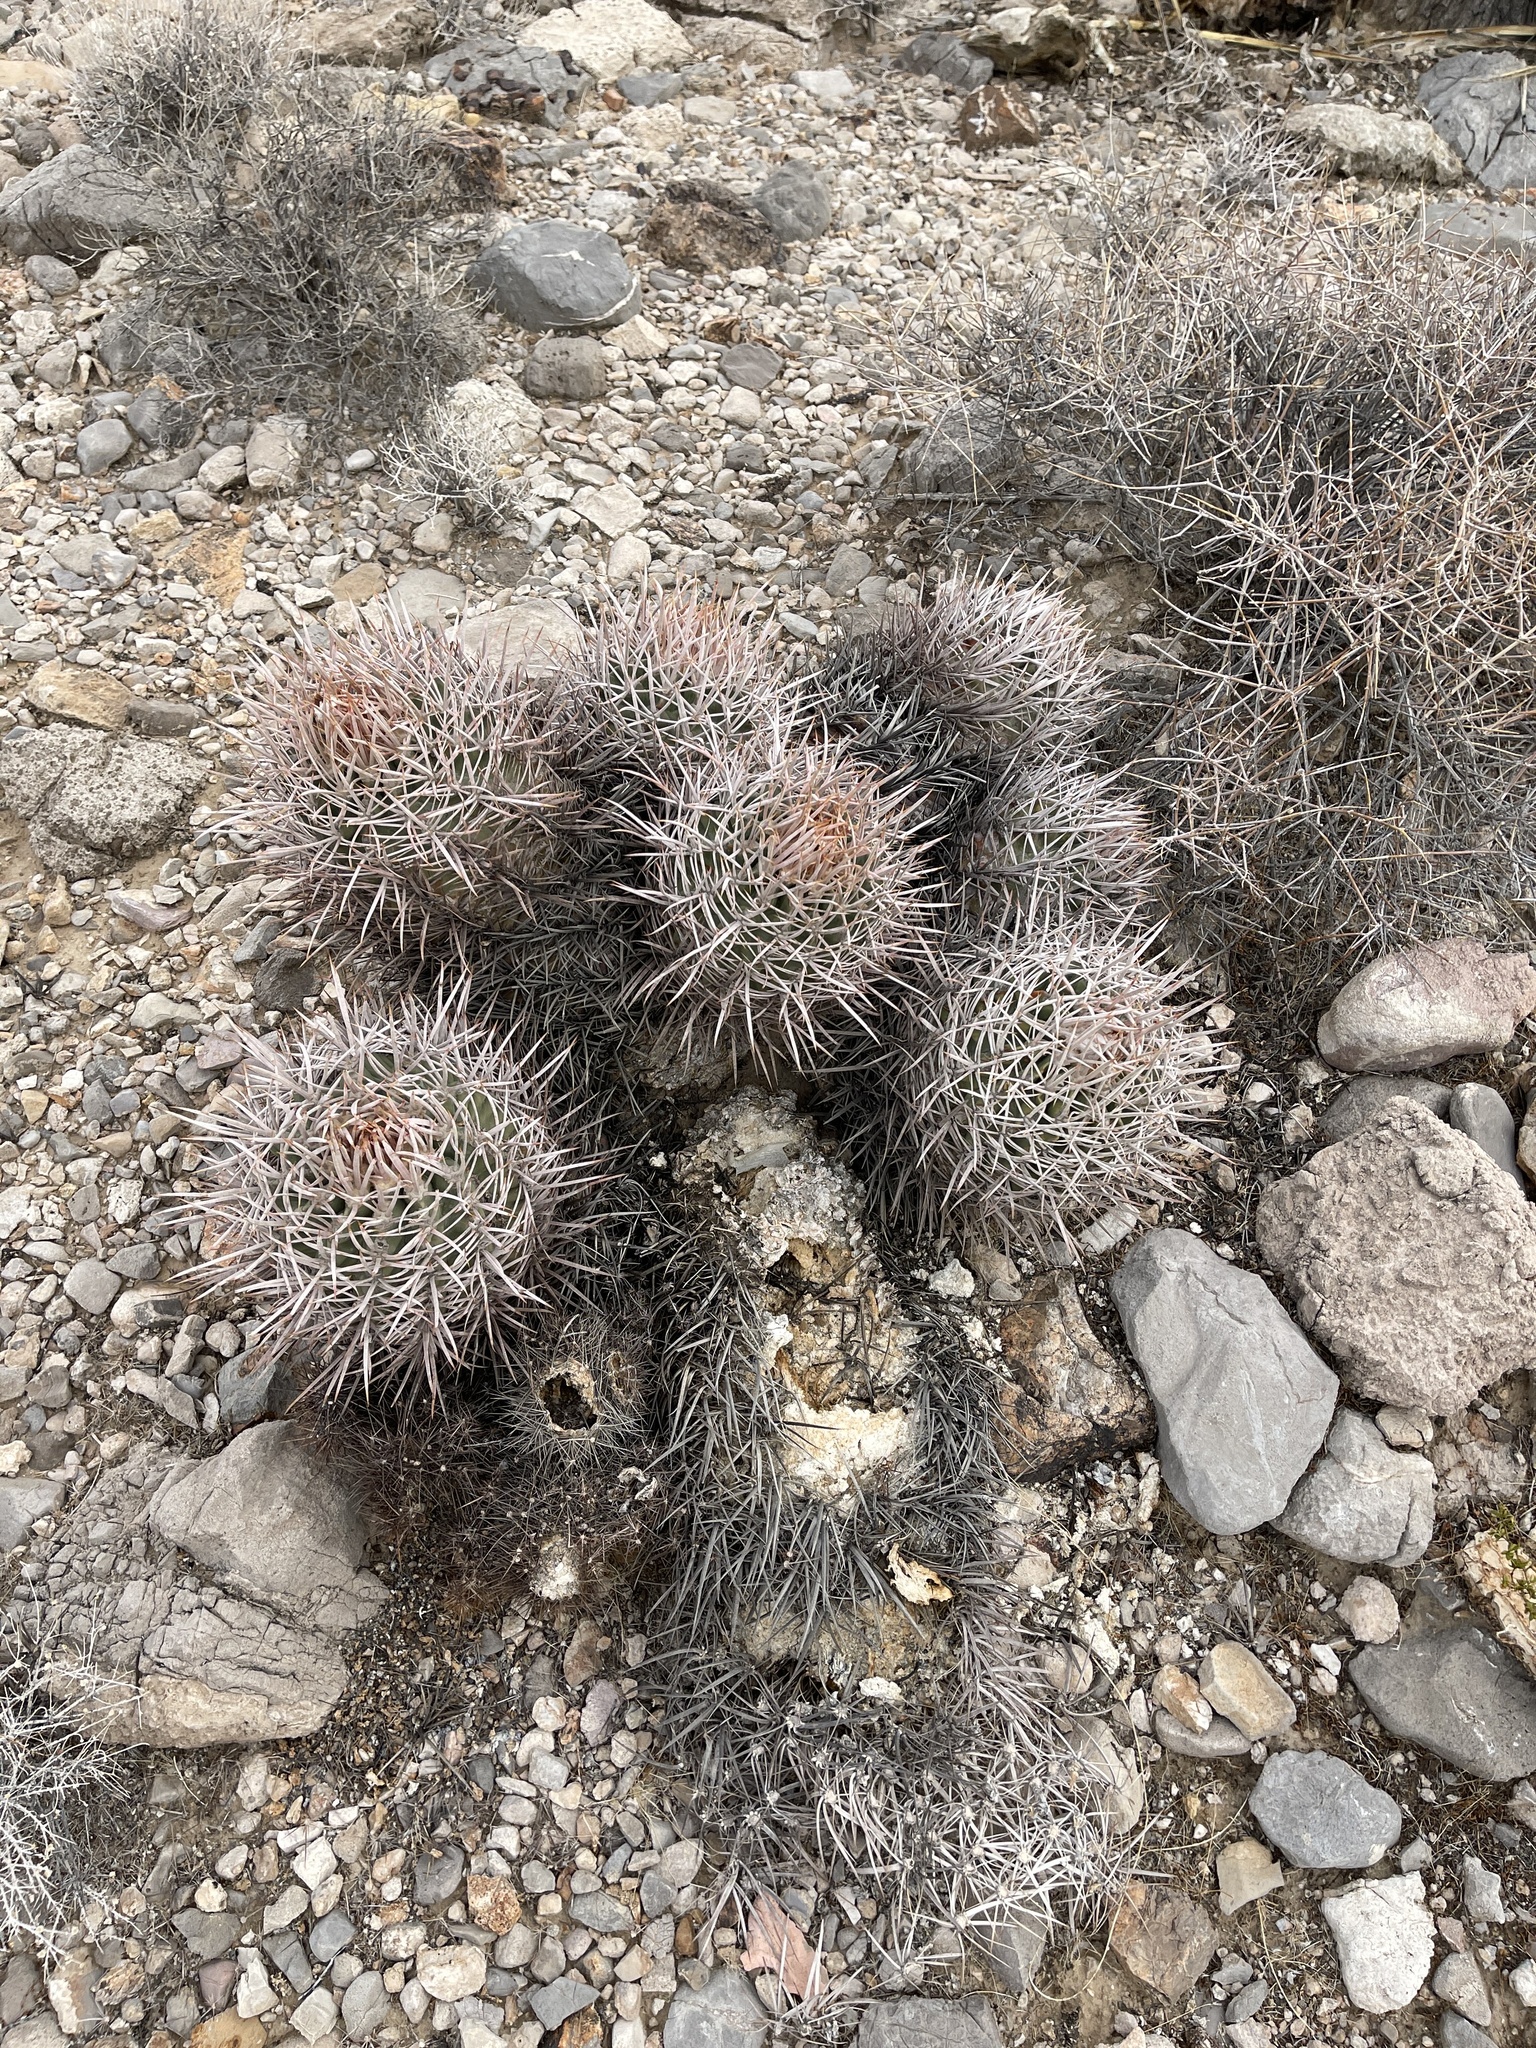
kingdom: Plantae
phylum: Tracheophyta
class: Magnoliopsida
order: Caryophyllales
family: Cactaceae
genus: Echinocactus
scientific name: Echinocactus polycephalus
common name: Cottontop cactus
